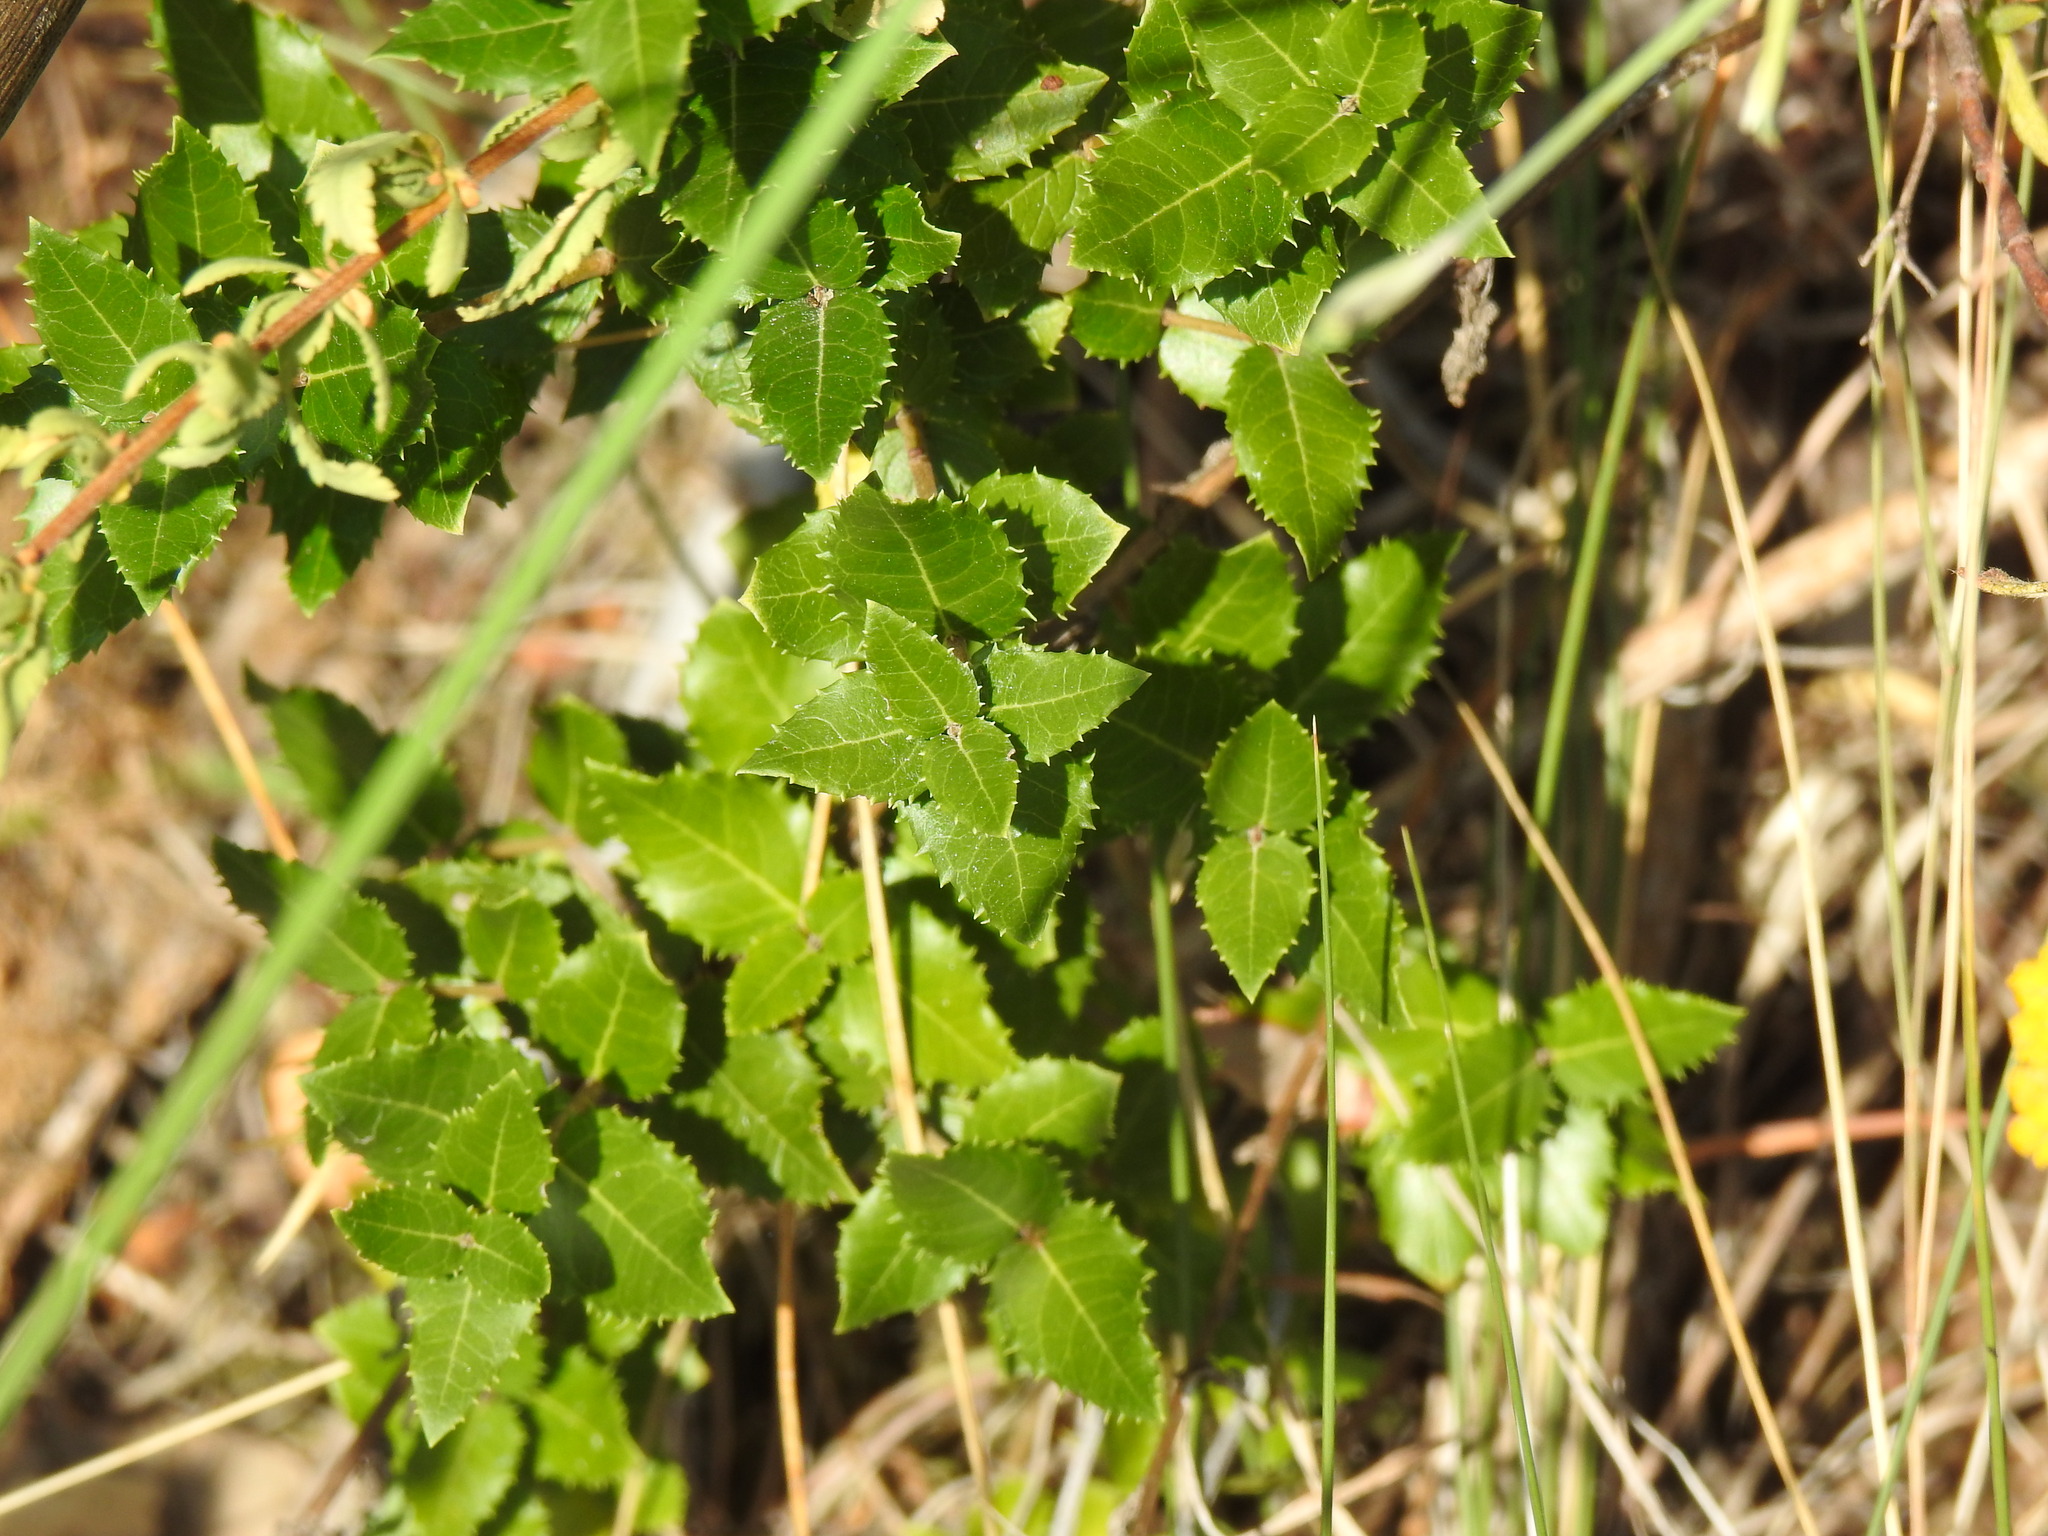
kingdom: Plantae
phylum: Tracheophyta
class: Magnoliopsida
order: Lamiales
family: Oleaceae
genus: Phillyrea
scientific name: Phillyrea latifolia
